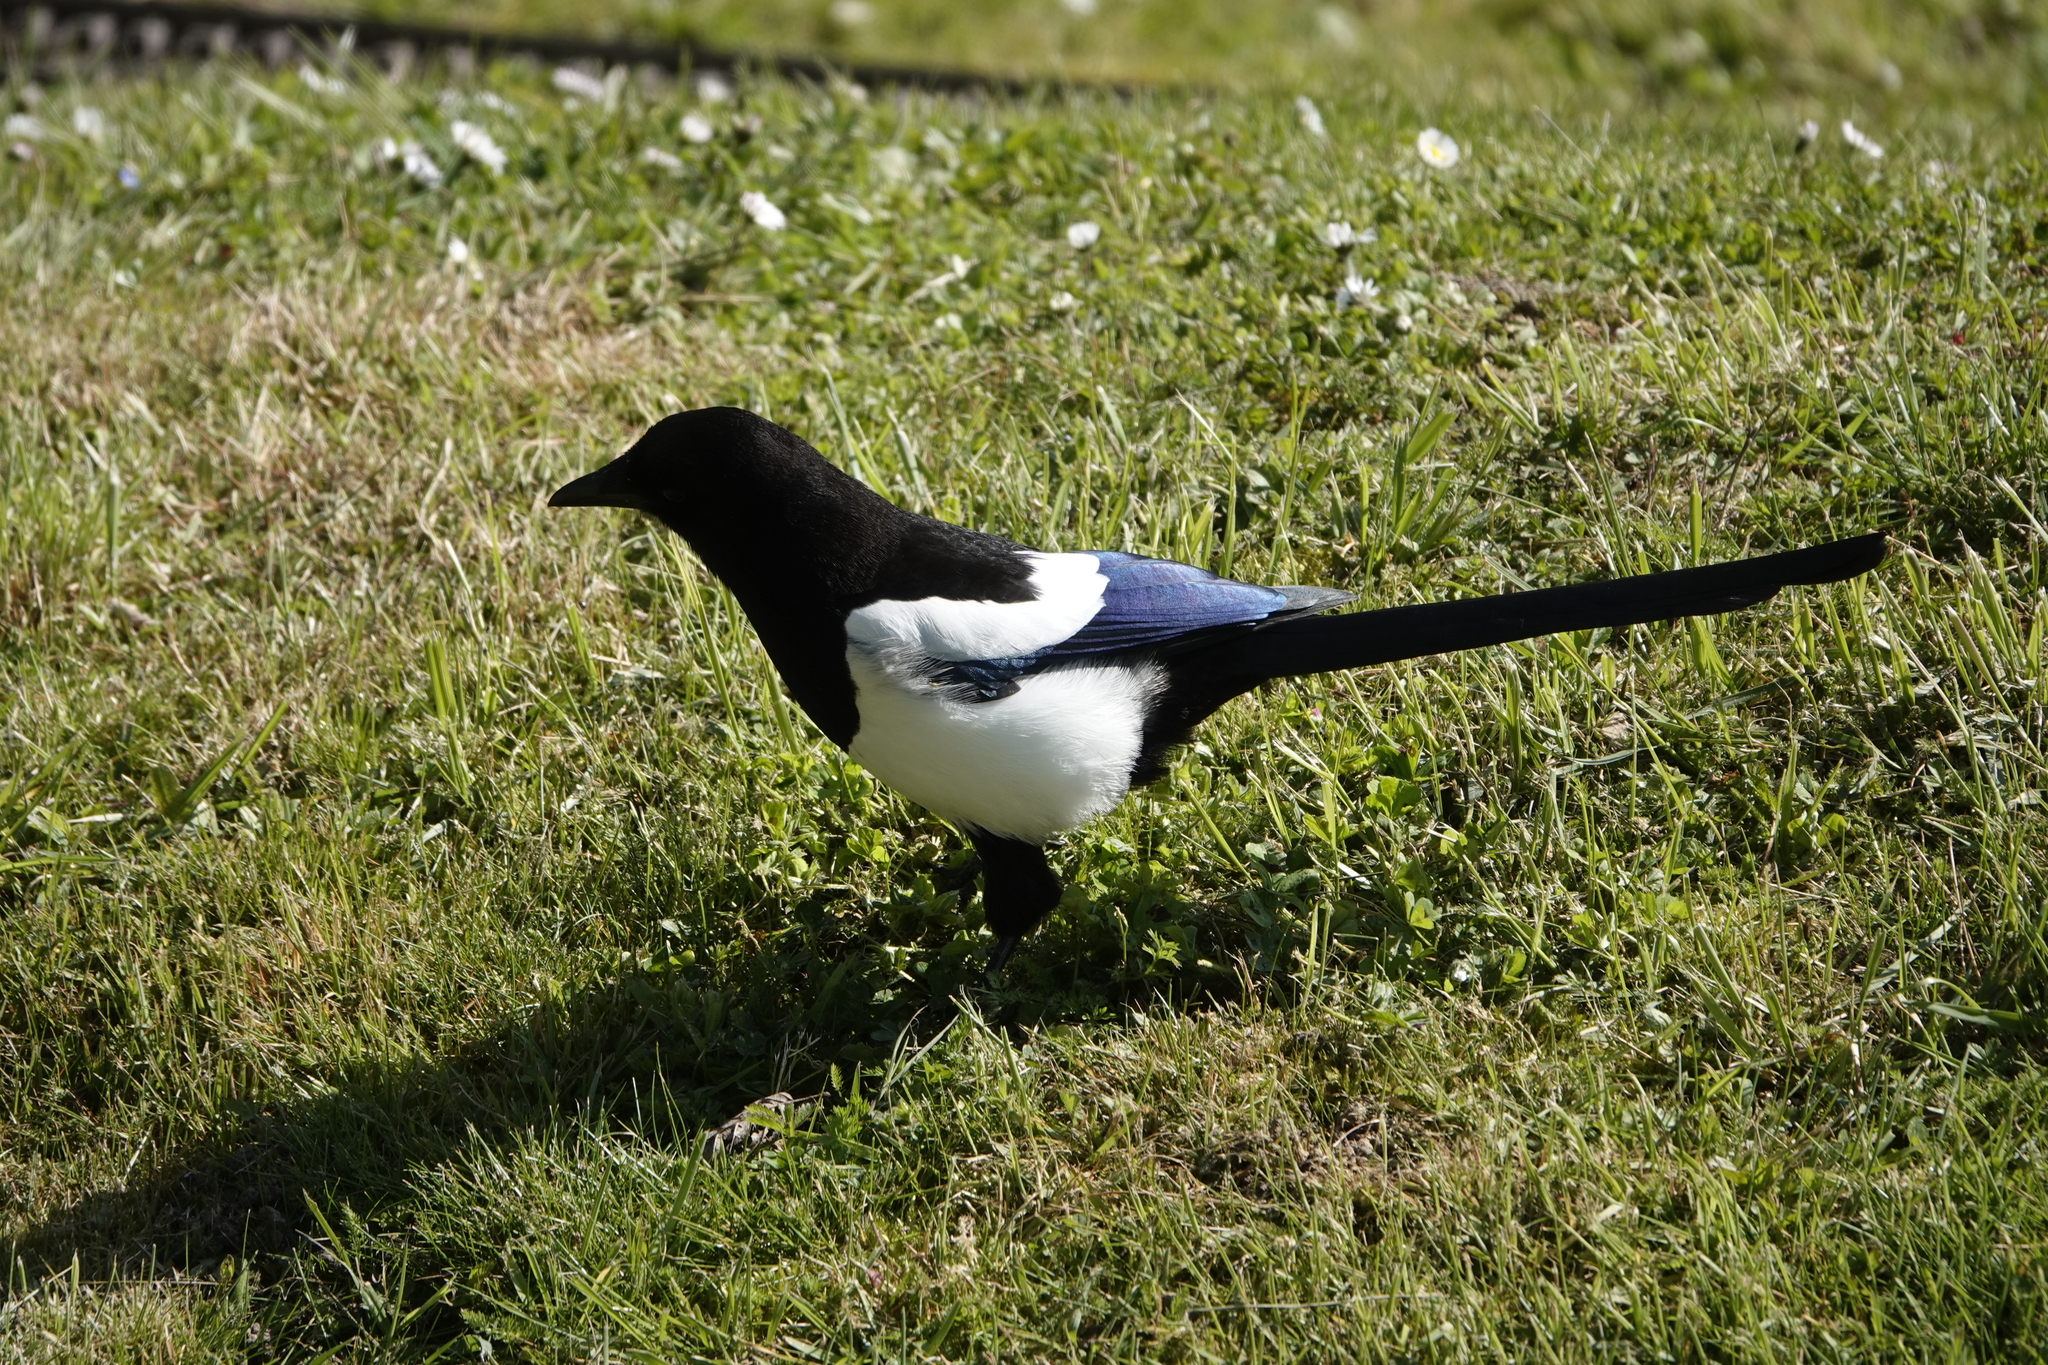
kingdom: Animalia
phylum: Chordata
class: Aves
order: Passeriformes
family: Corvidae
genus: Pica
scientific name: Pica pica
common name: Eurasian magpie
